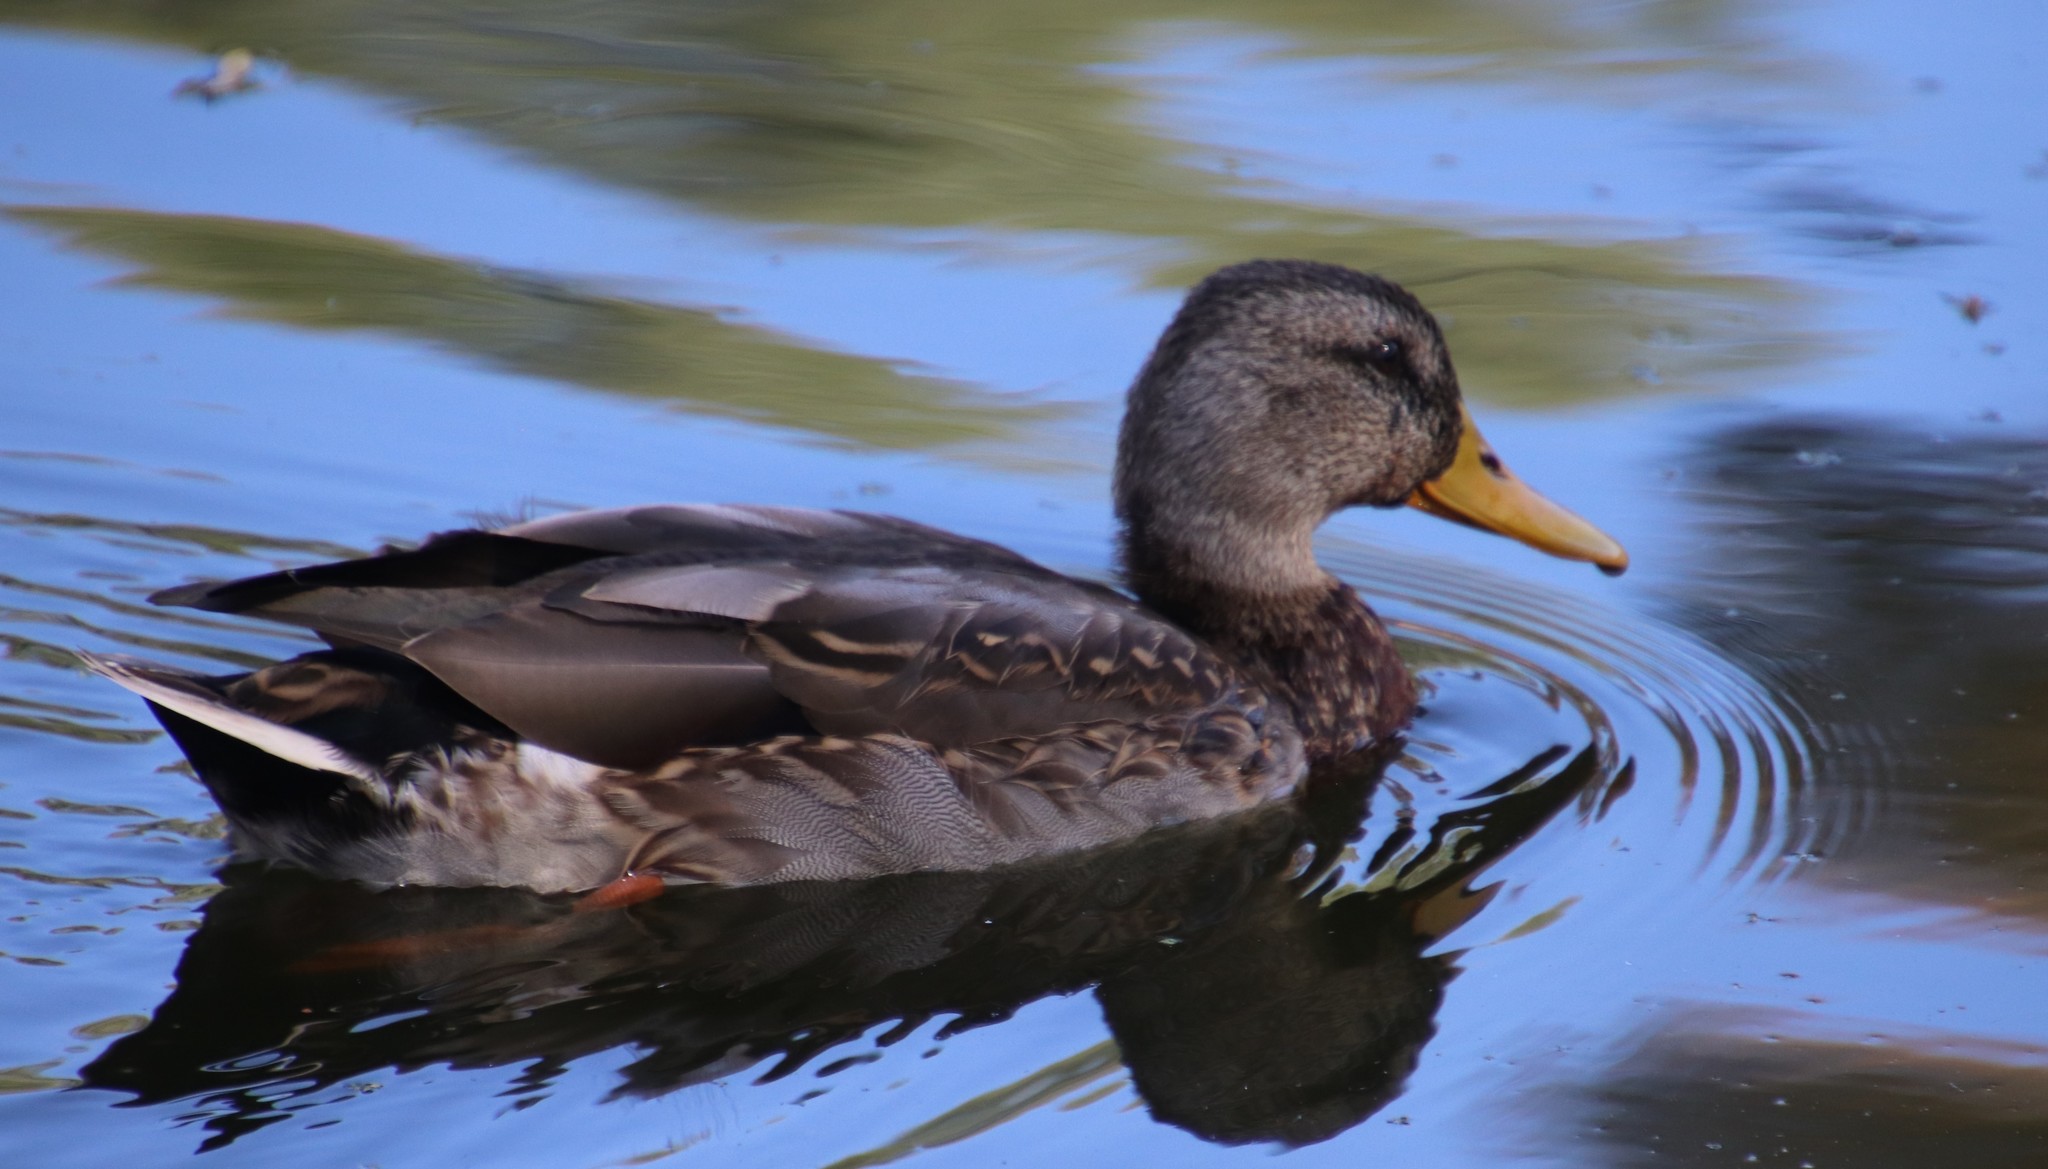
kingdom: Animalia
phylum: Chordata
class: Aves
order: Anseriformes
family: Anatidae
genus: Anas
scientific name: Anas platyrhynchos
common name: Mallard
